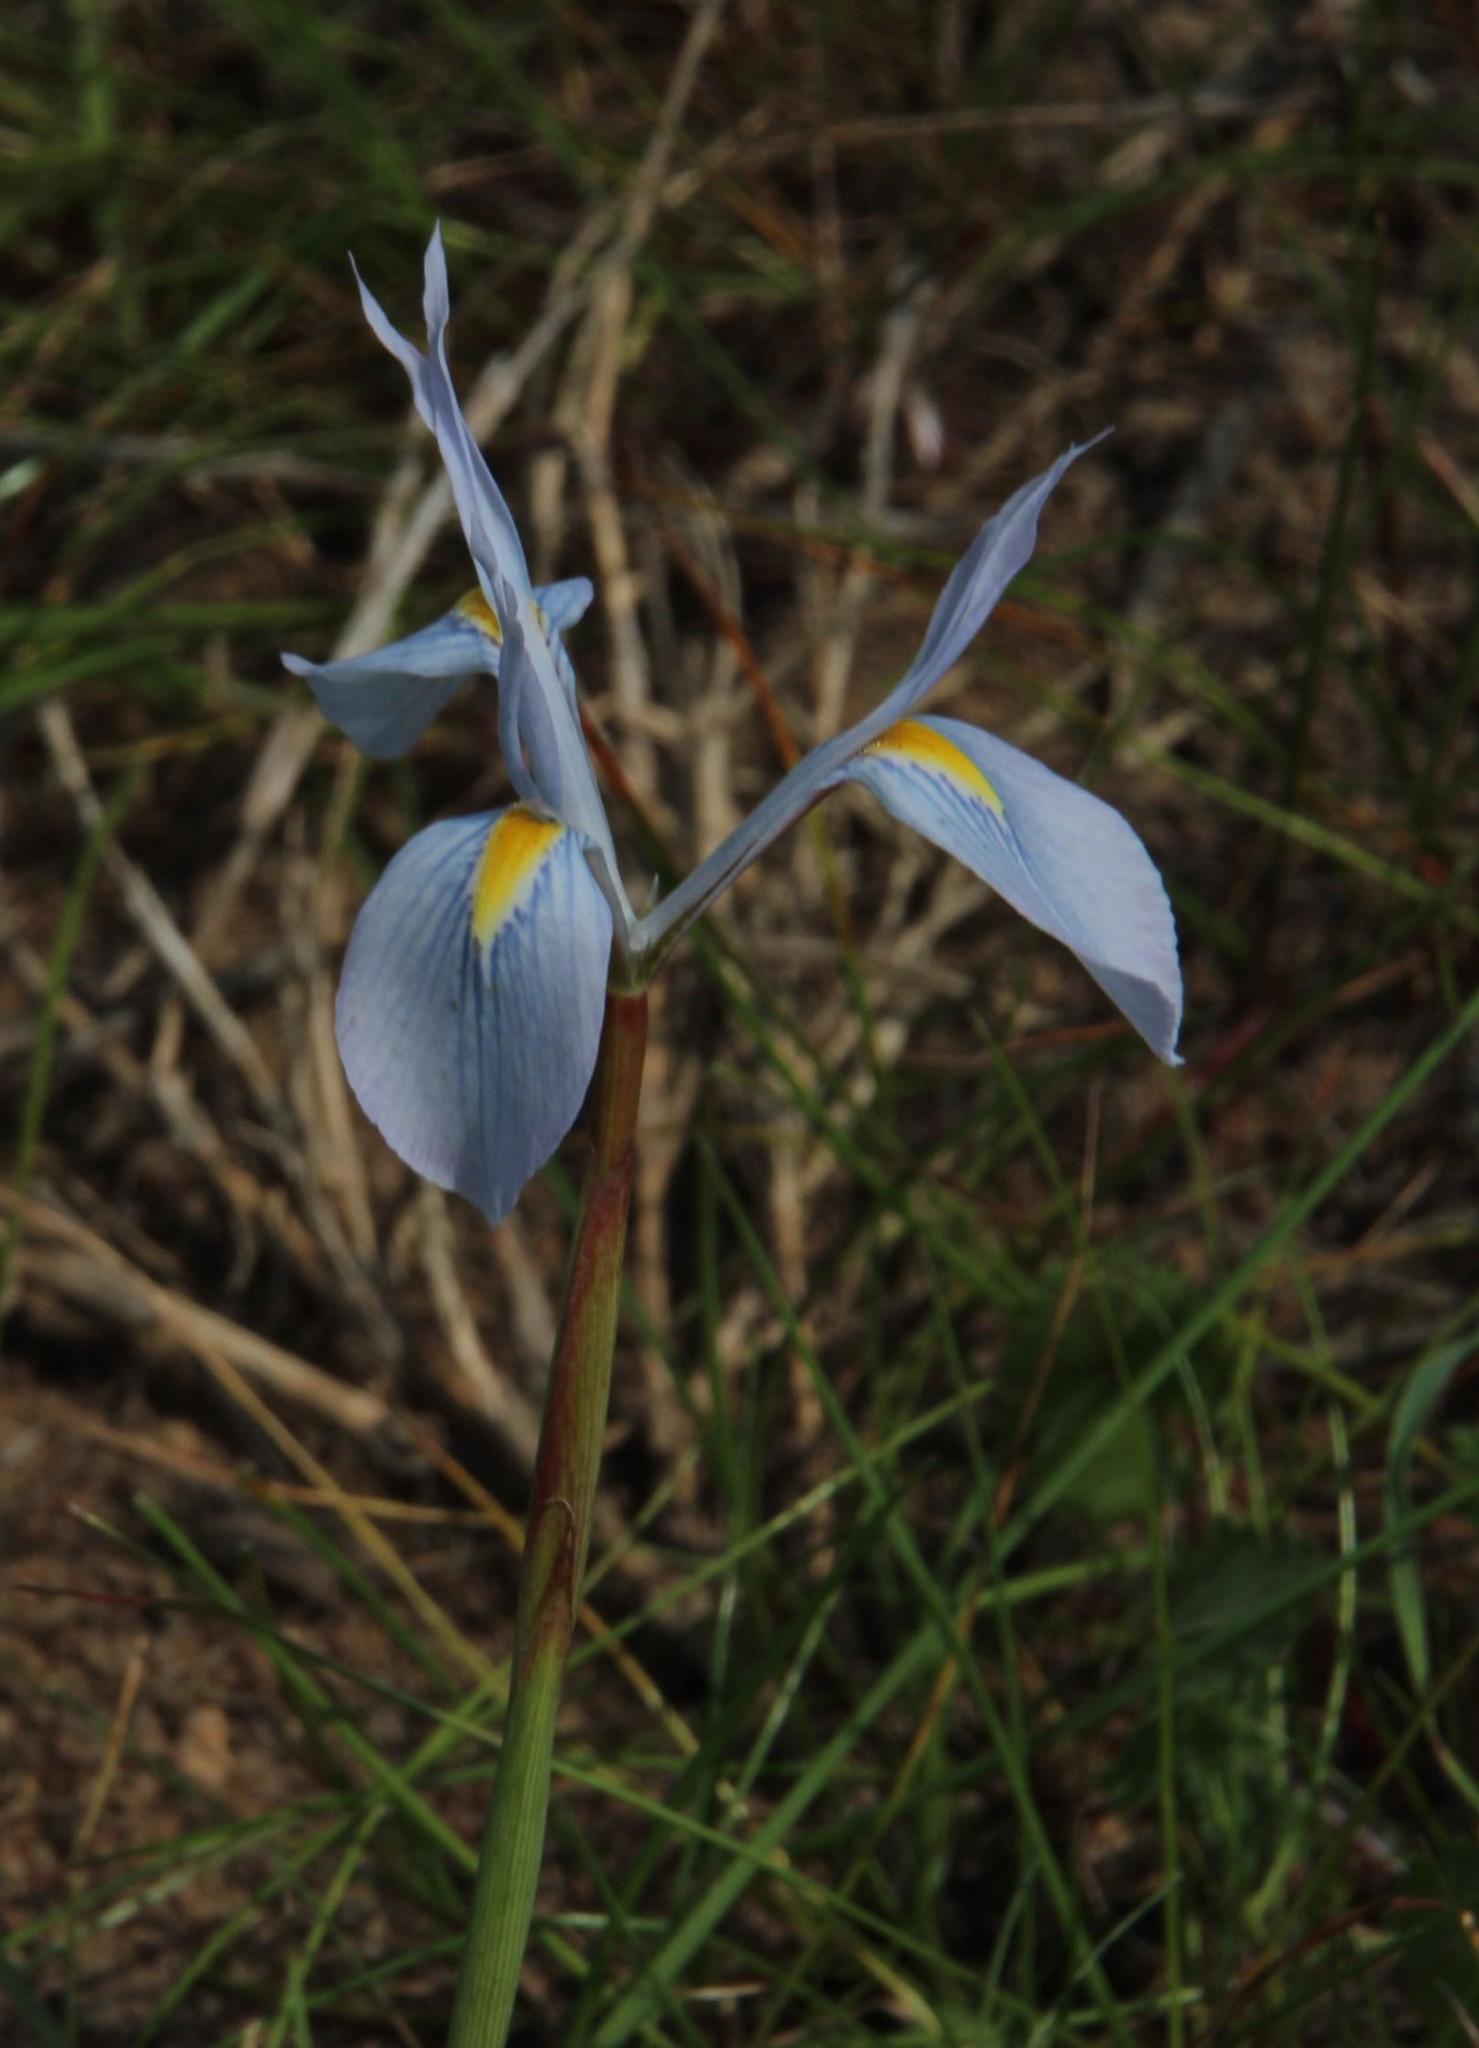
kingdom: Plantae
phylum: Tracheophyta
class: Liliopsida
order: Asparagales
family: Iridaceae
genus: Moraea
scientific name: Moraea tripetala
